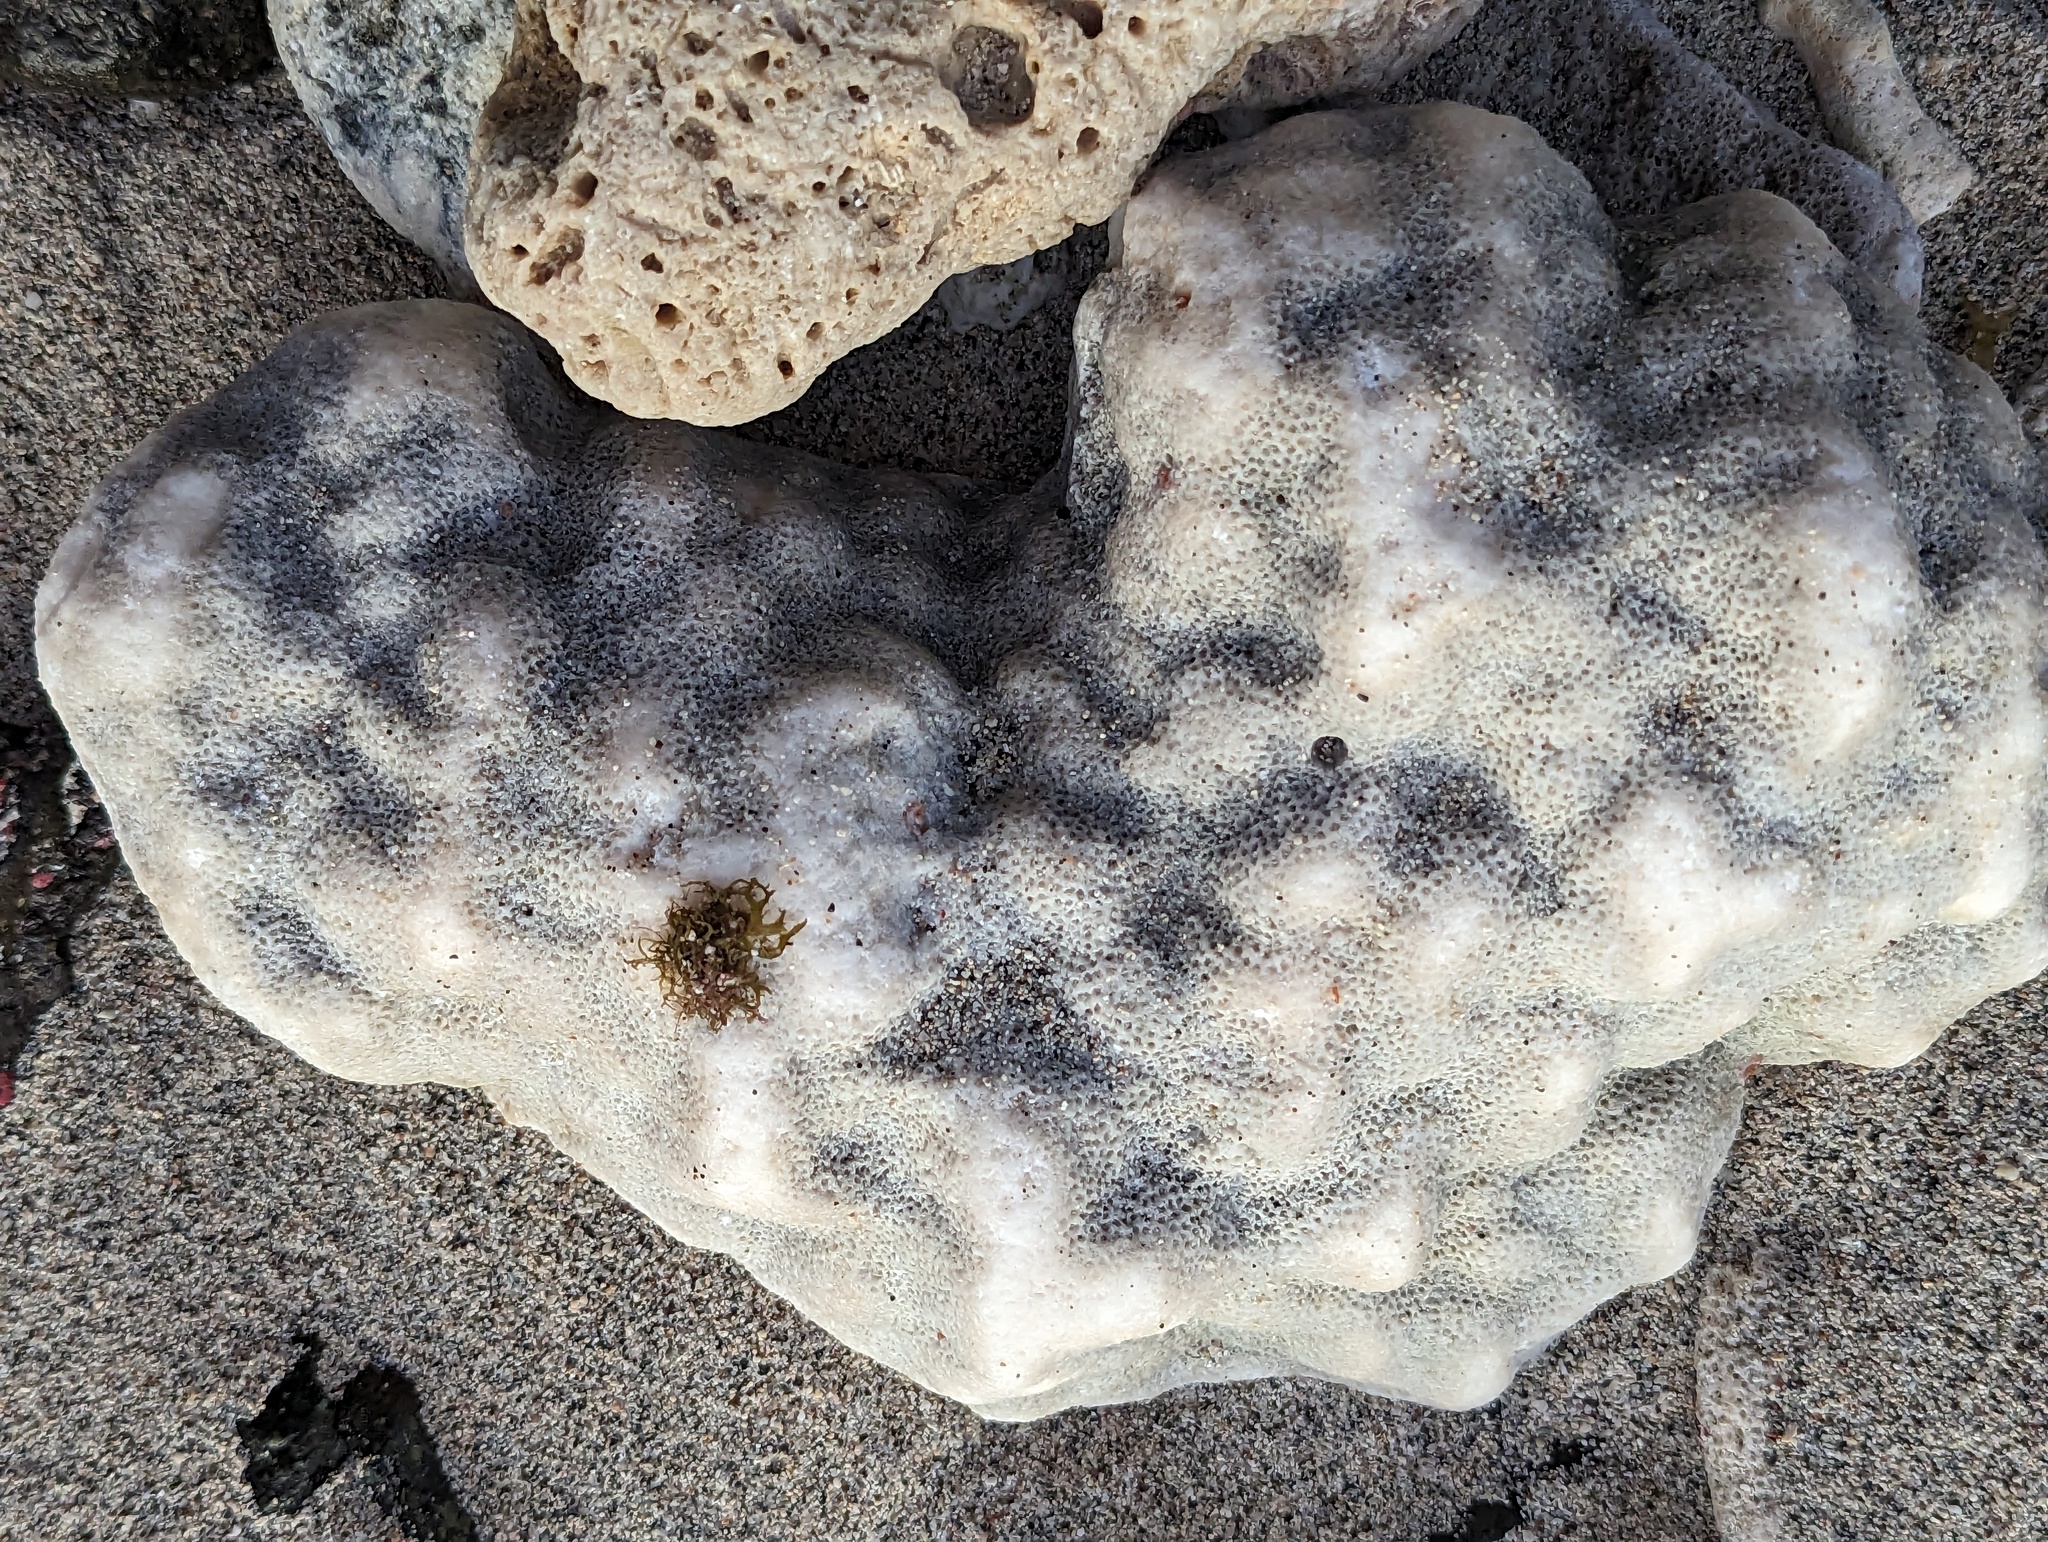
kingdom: Animalia
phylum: Cnidaria
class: Anthozoa
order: Scleractinia
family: Poritidae
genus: Porites
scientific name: Porites astreoides
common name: Mustard hill coral
